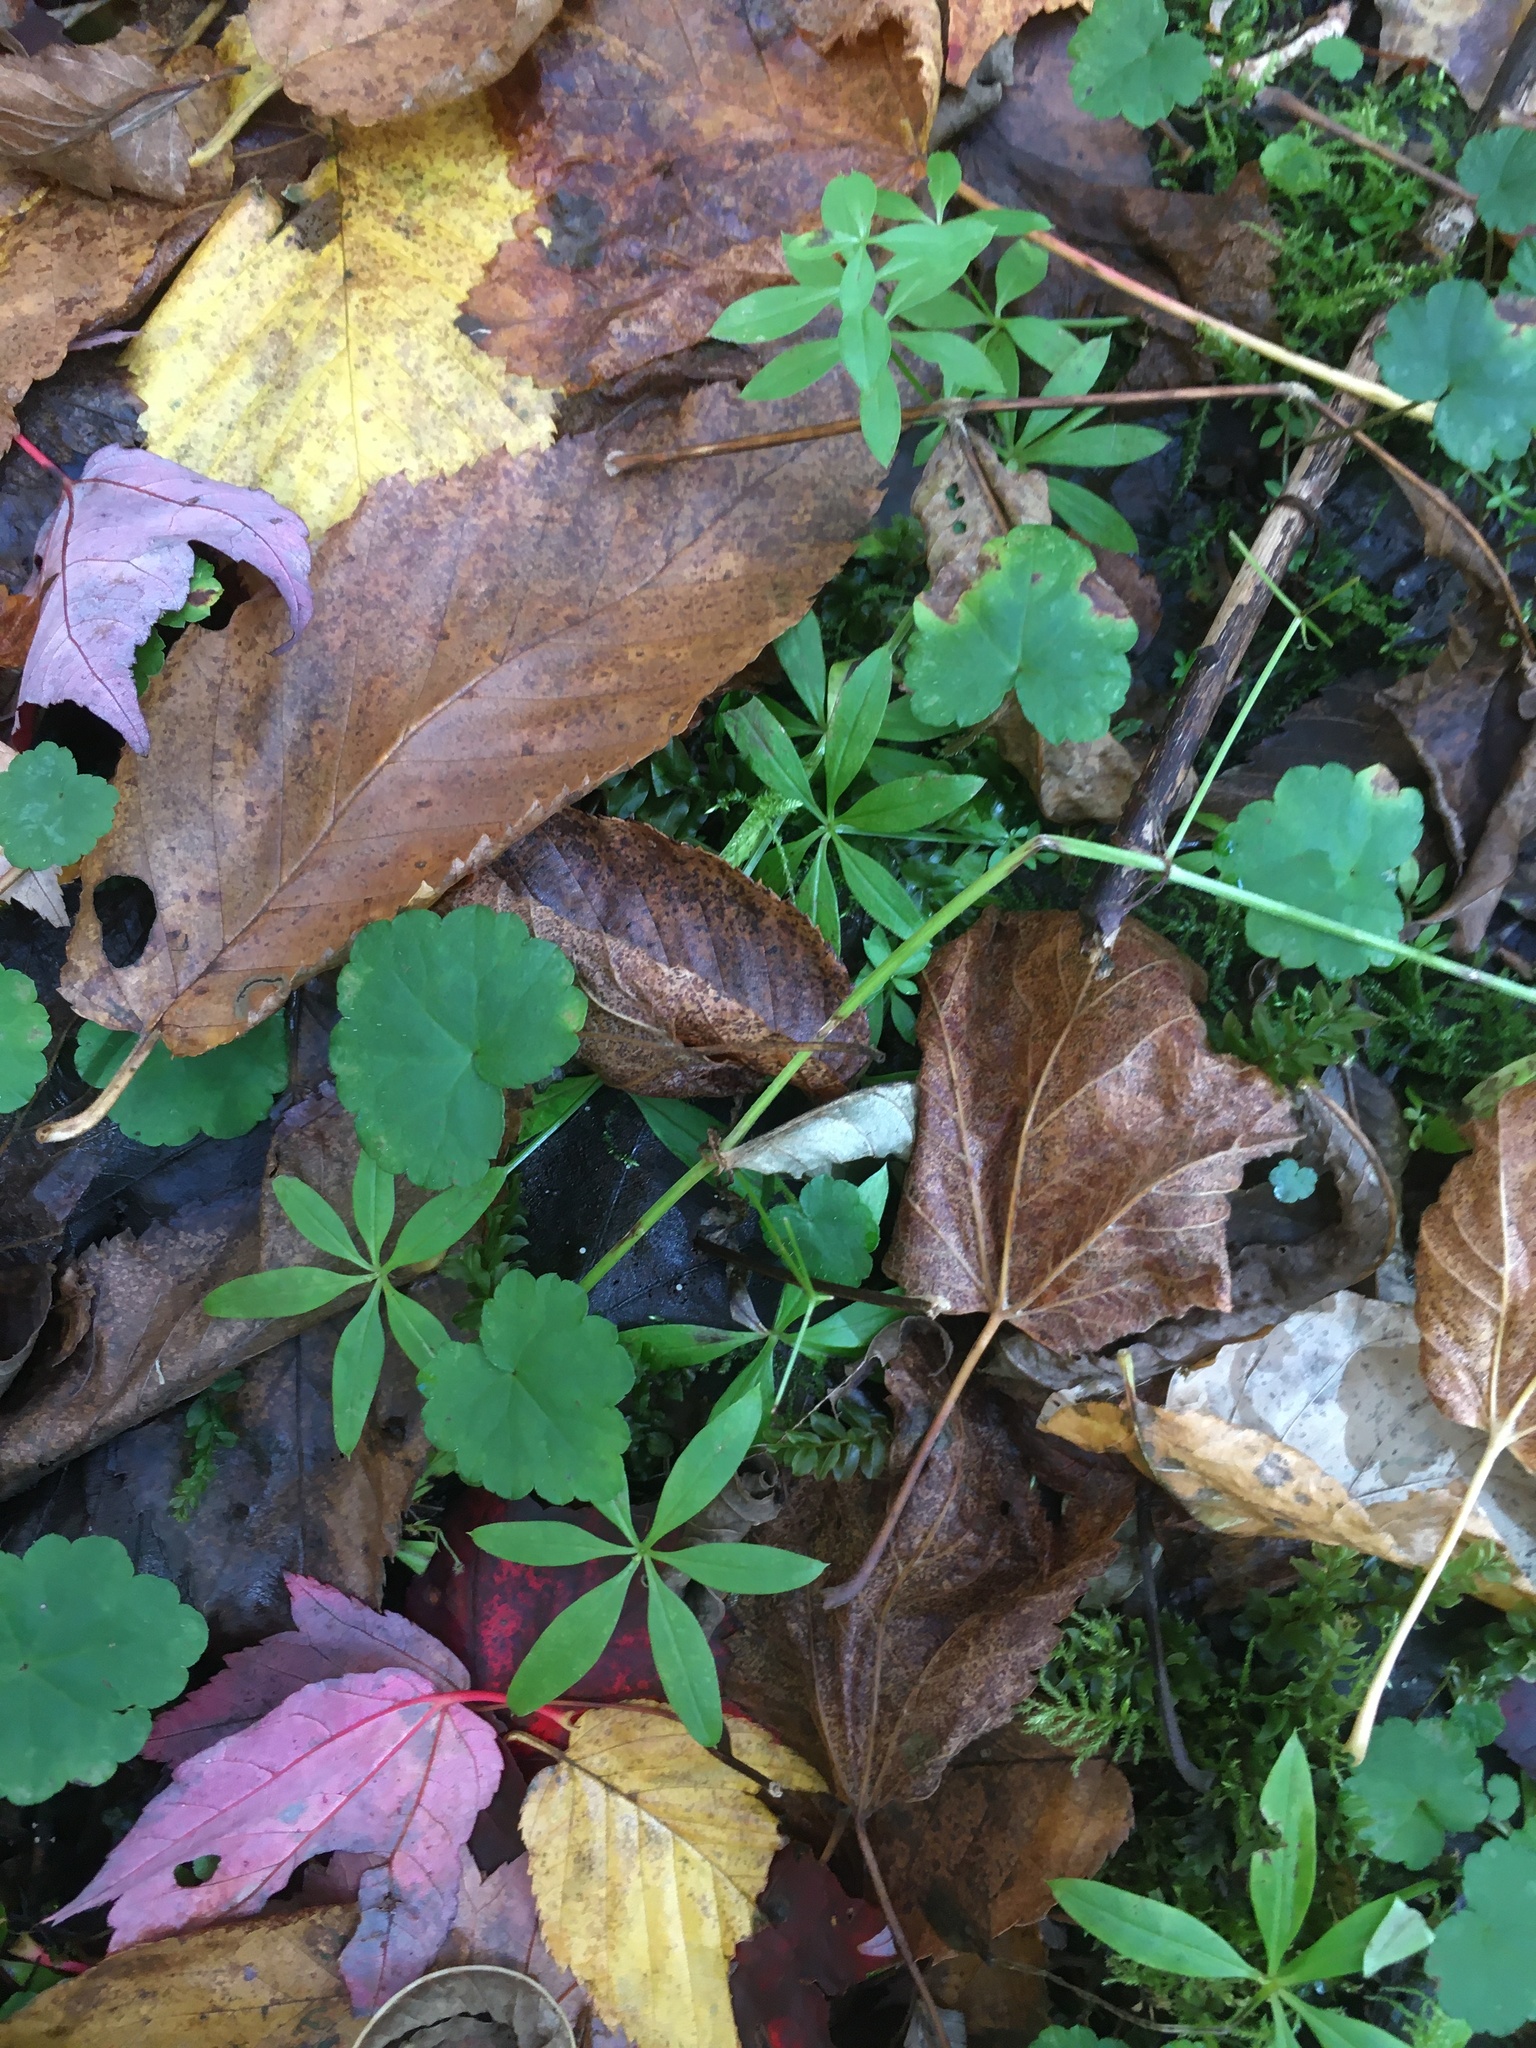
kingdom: Plantae
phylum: Tracheophyta
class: Magnoliopsida
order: Gentianales
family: Rubiaceae
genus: Galium
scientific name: Galium triflorum
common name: Fragrant bedstraw
